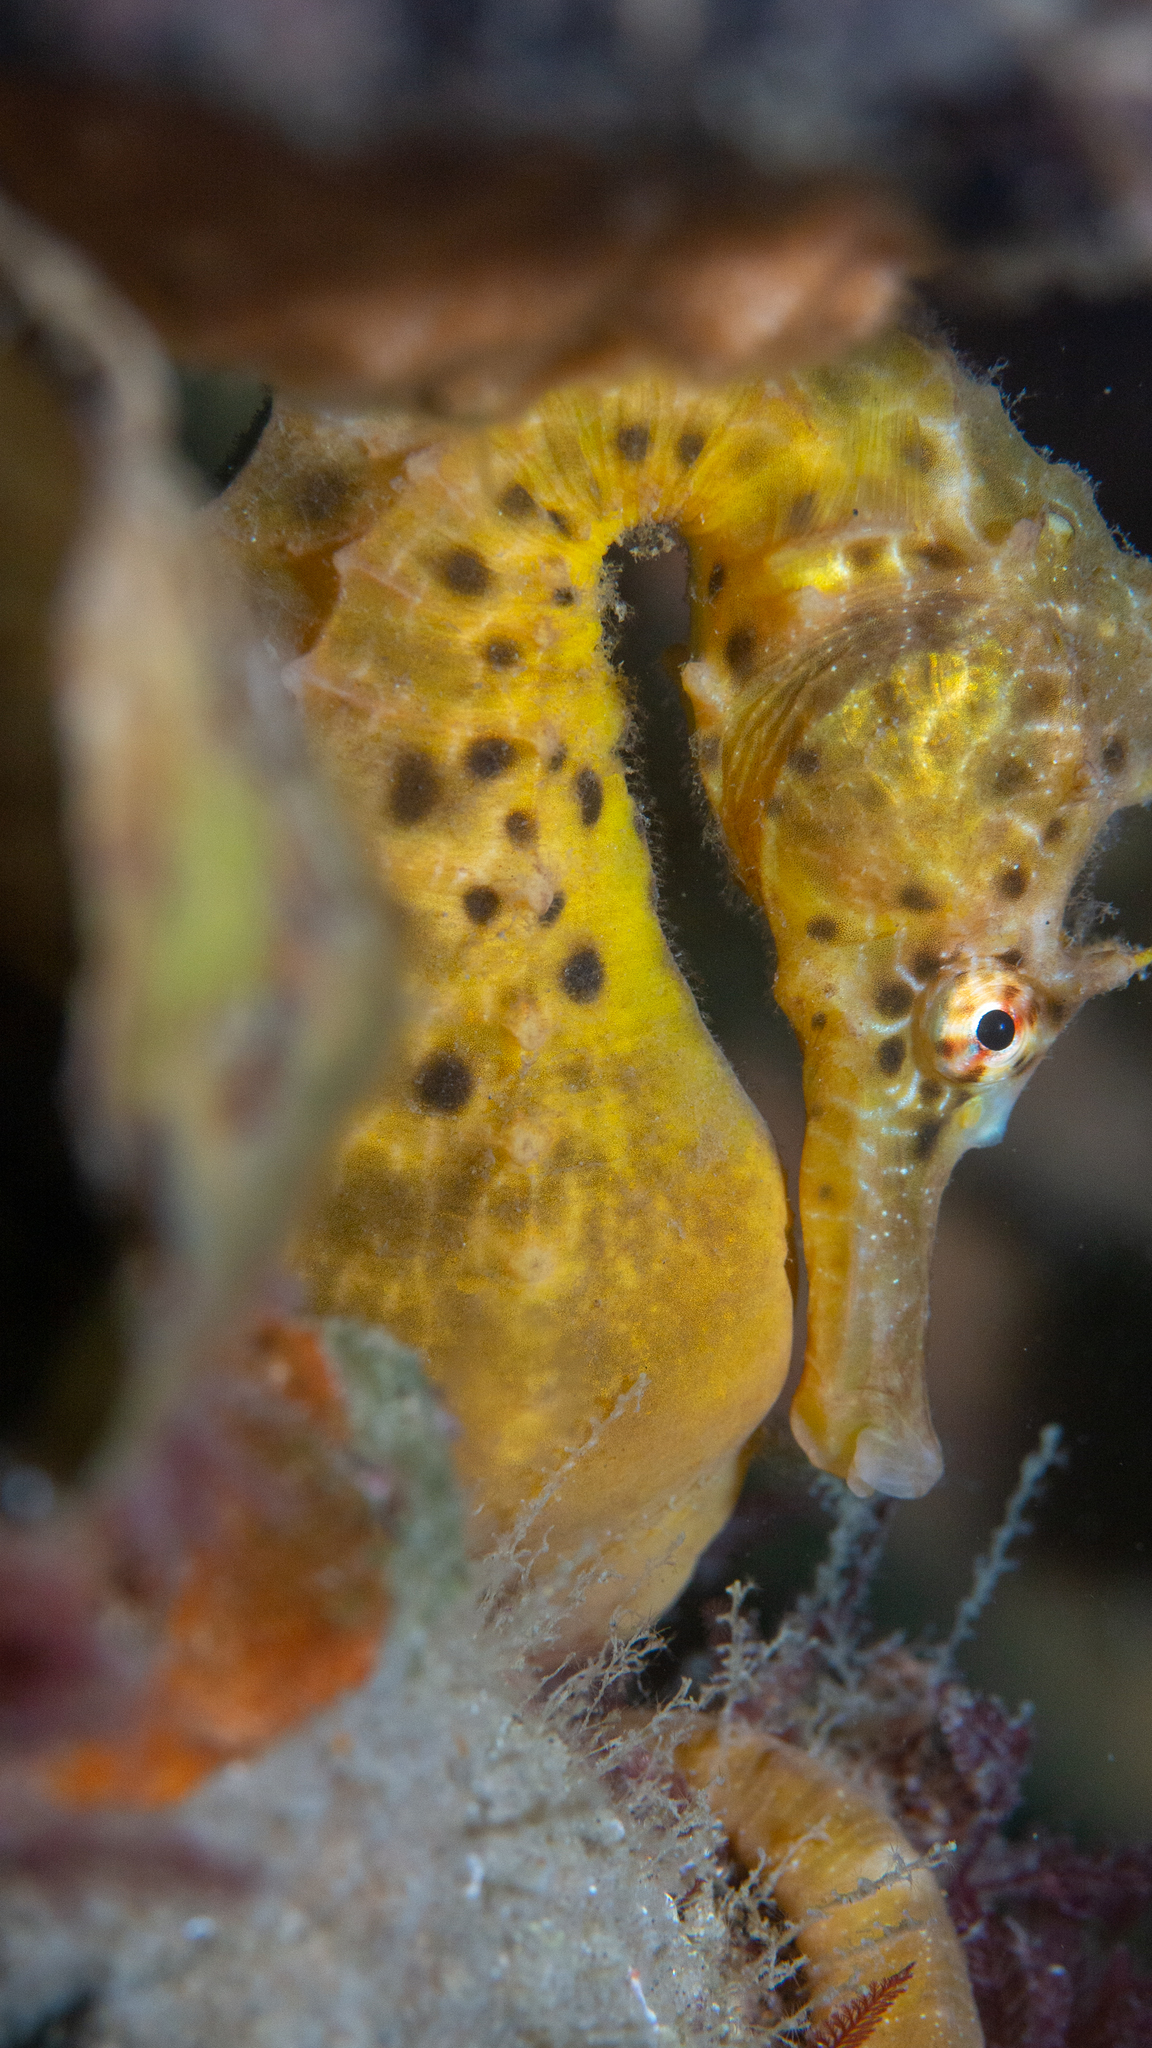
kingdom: Animalia
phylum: Chordata
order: Syngnathiformes
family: Syngnathidae
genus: Hippocampus
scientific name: Hippocampus abdominalis
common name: Big-belly seahorse
